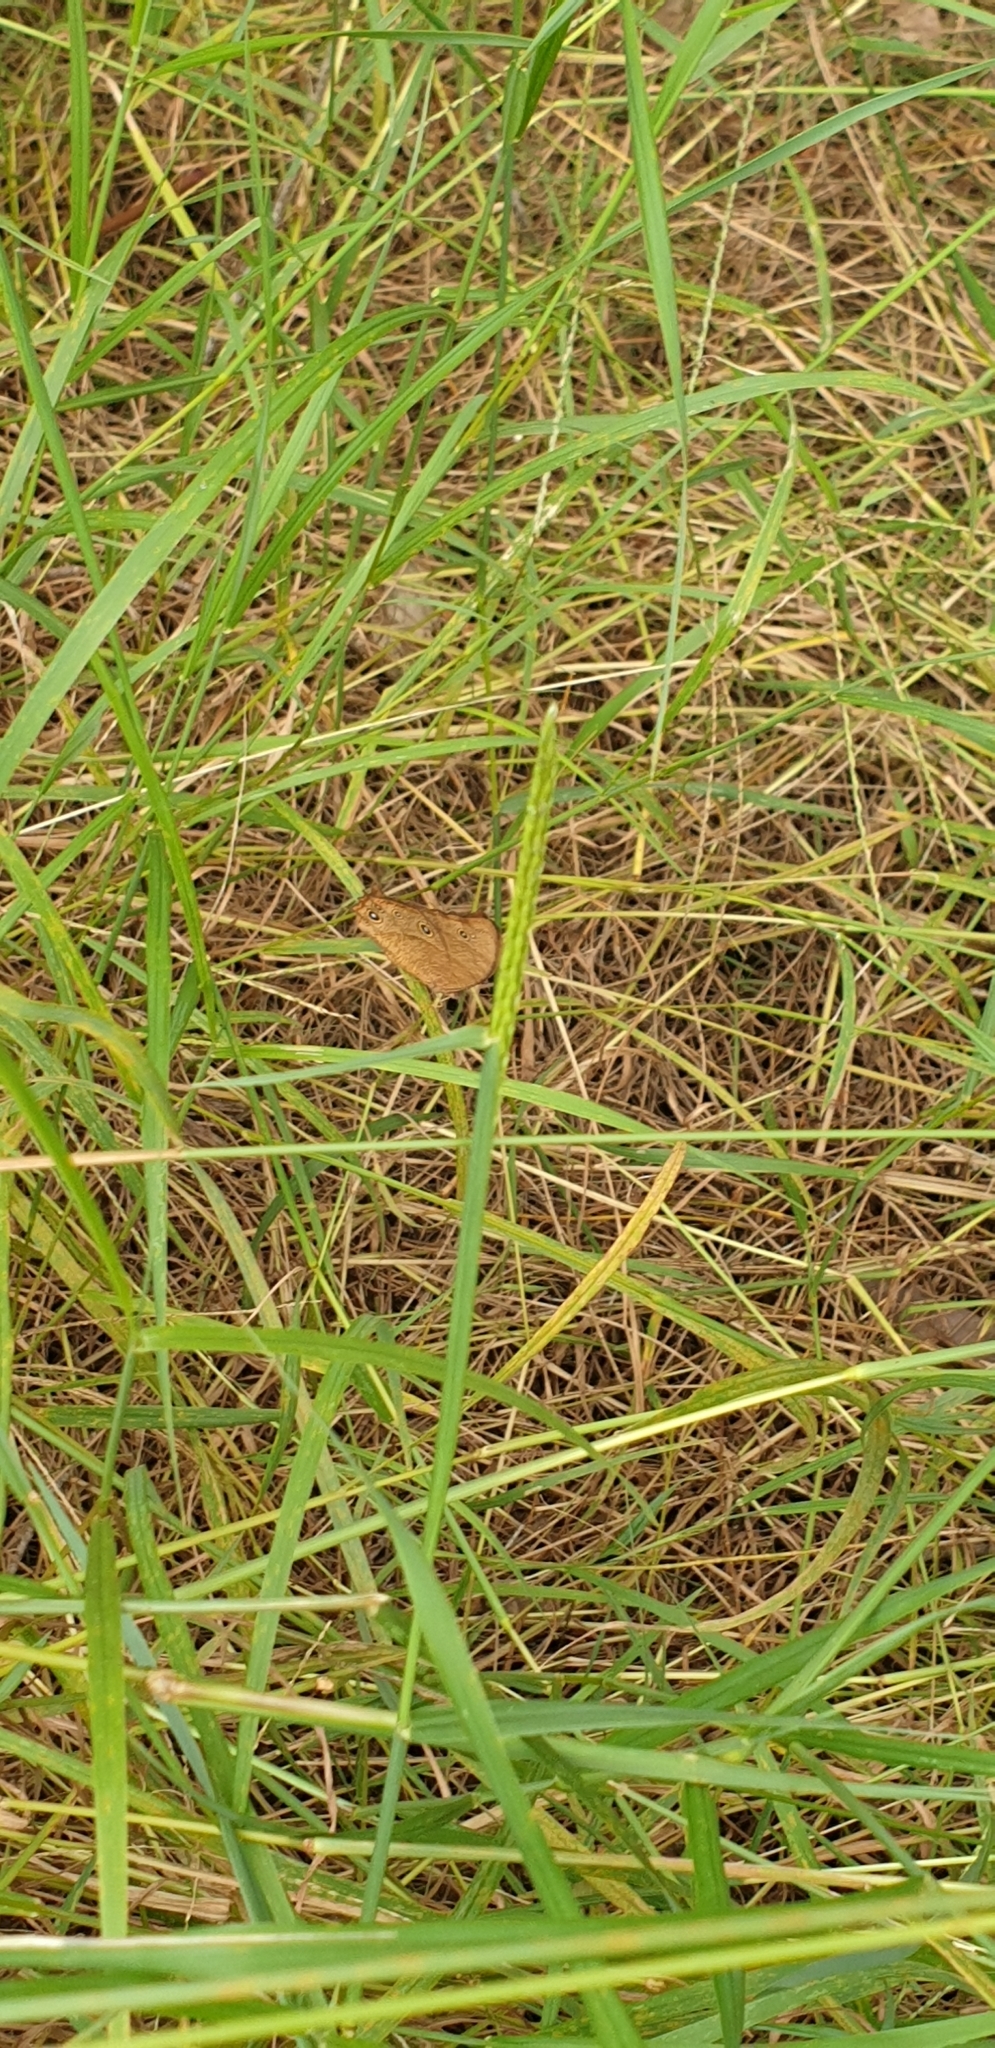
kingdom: Animalia
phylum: Arthropoda
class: Insecta
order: Lepidoptera
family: Nymphalidae
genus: Melanitis
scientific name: Melanitis leda
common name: Twilight brown
